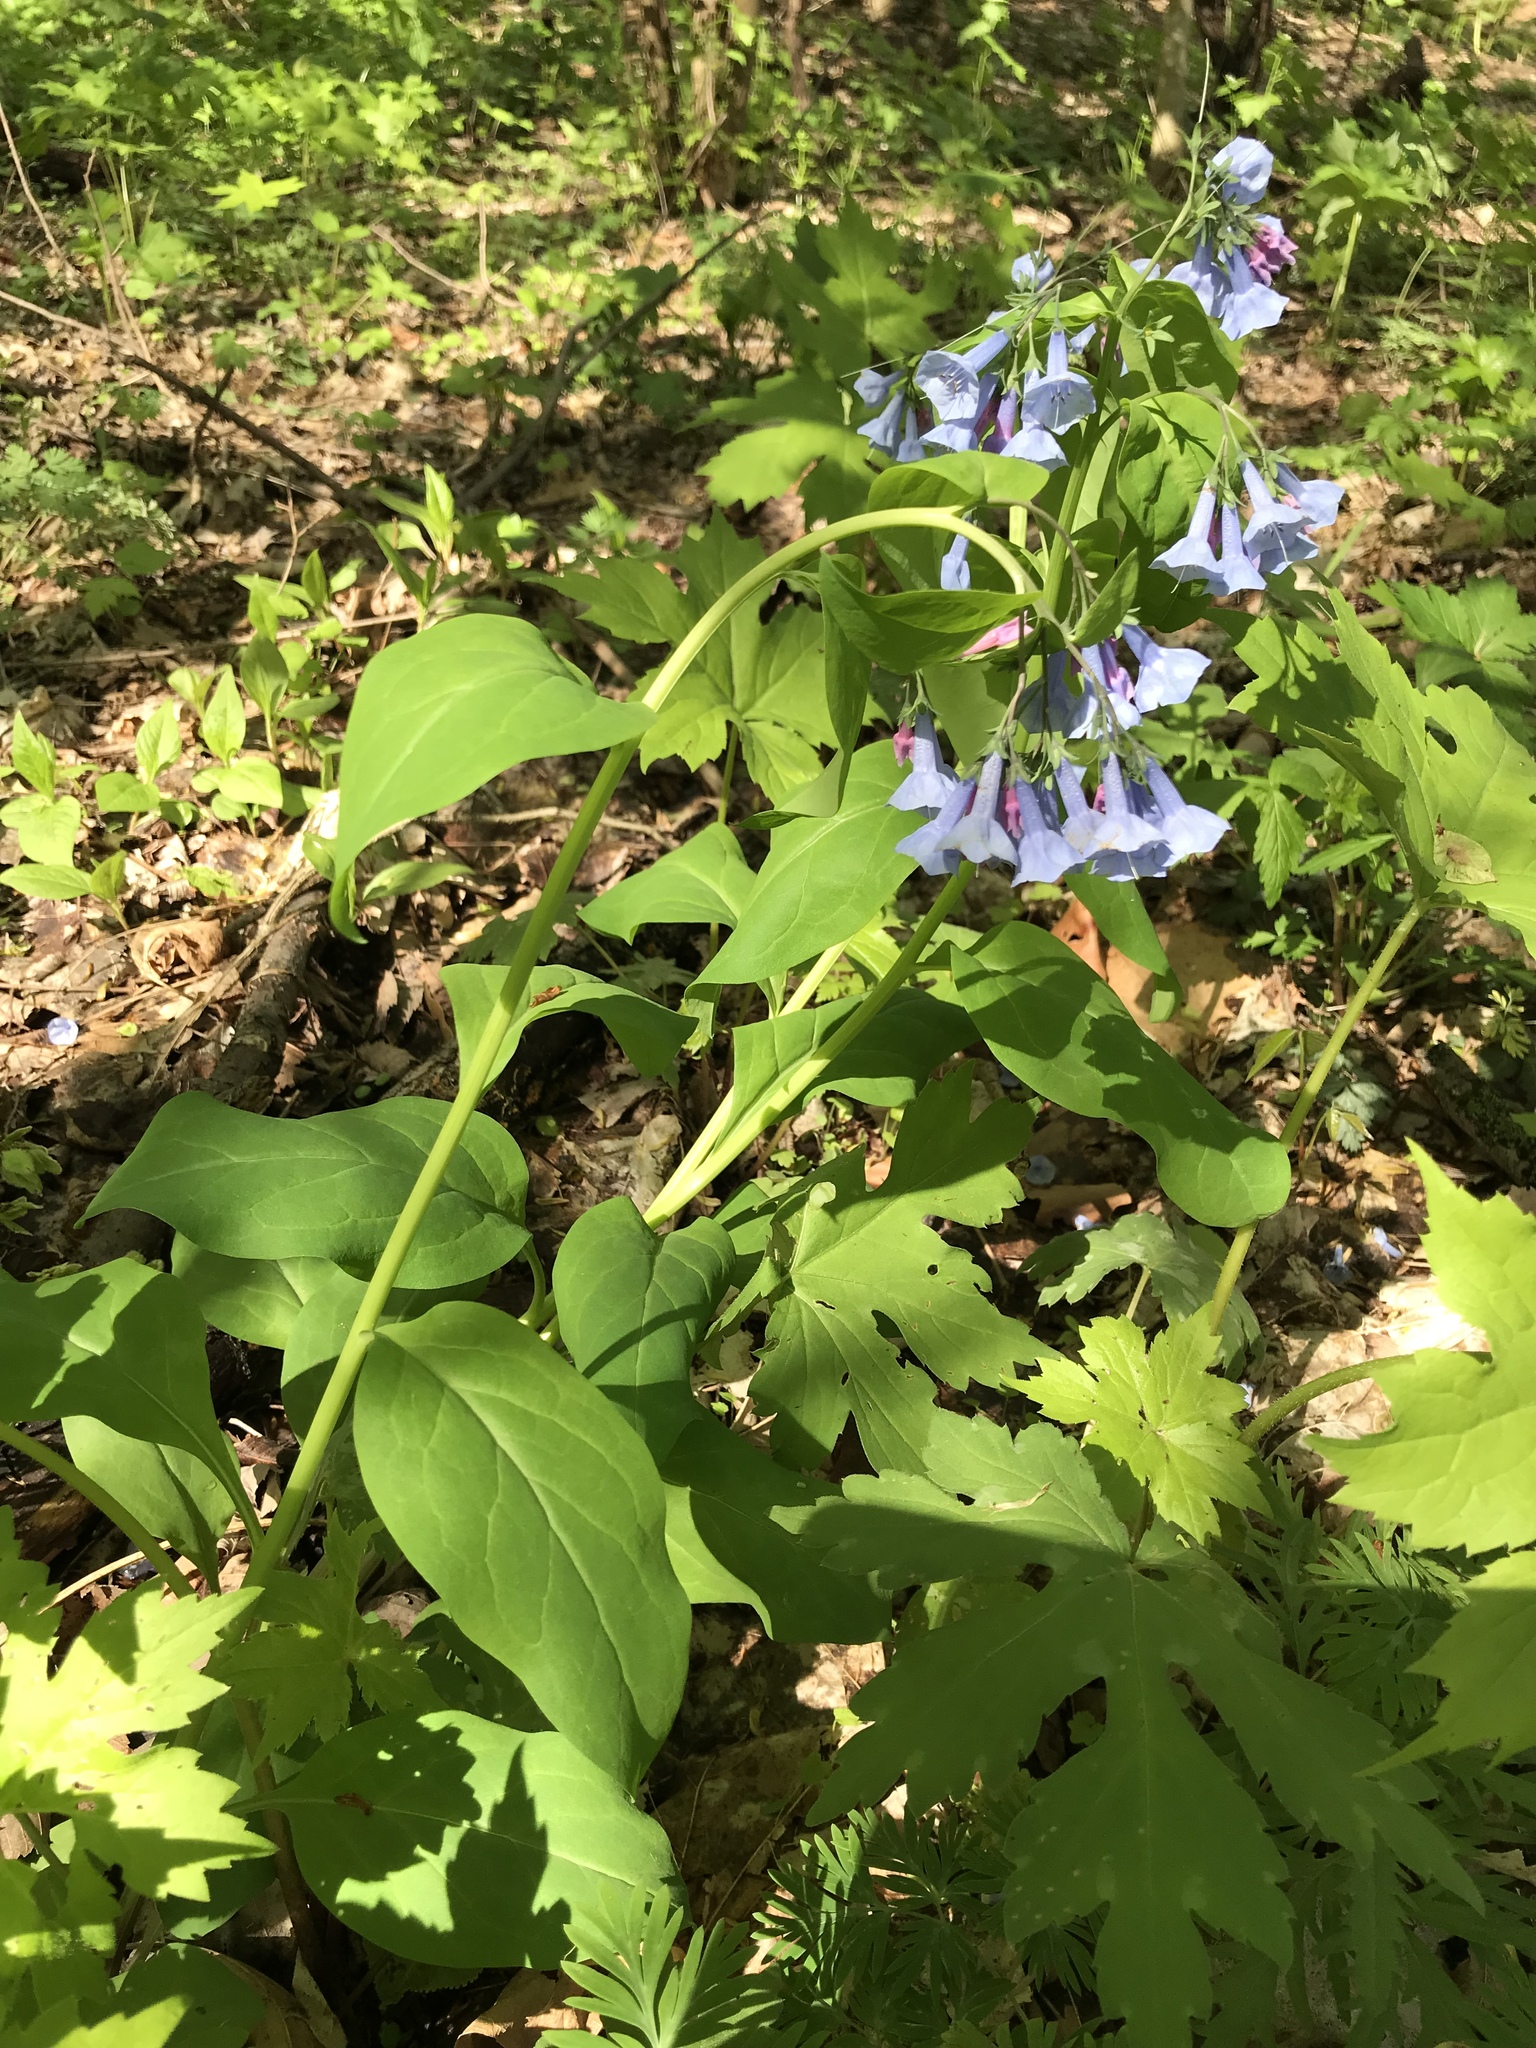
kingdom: Plantae
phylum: Tracheophyta
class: Magnoliopsida
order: Boraginales
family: Boraginaceae
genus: Mertensia
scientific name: Mertensia virginica
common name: Virginia bluebells
